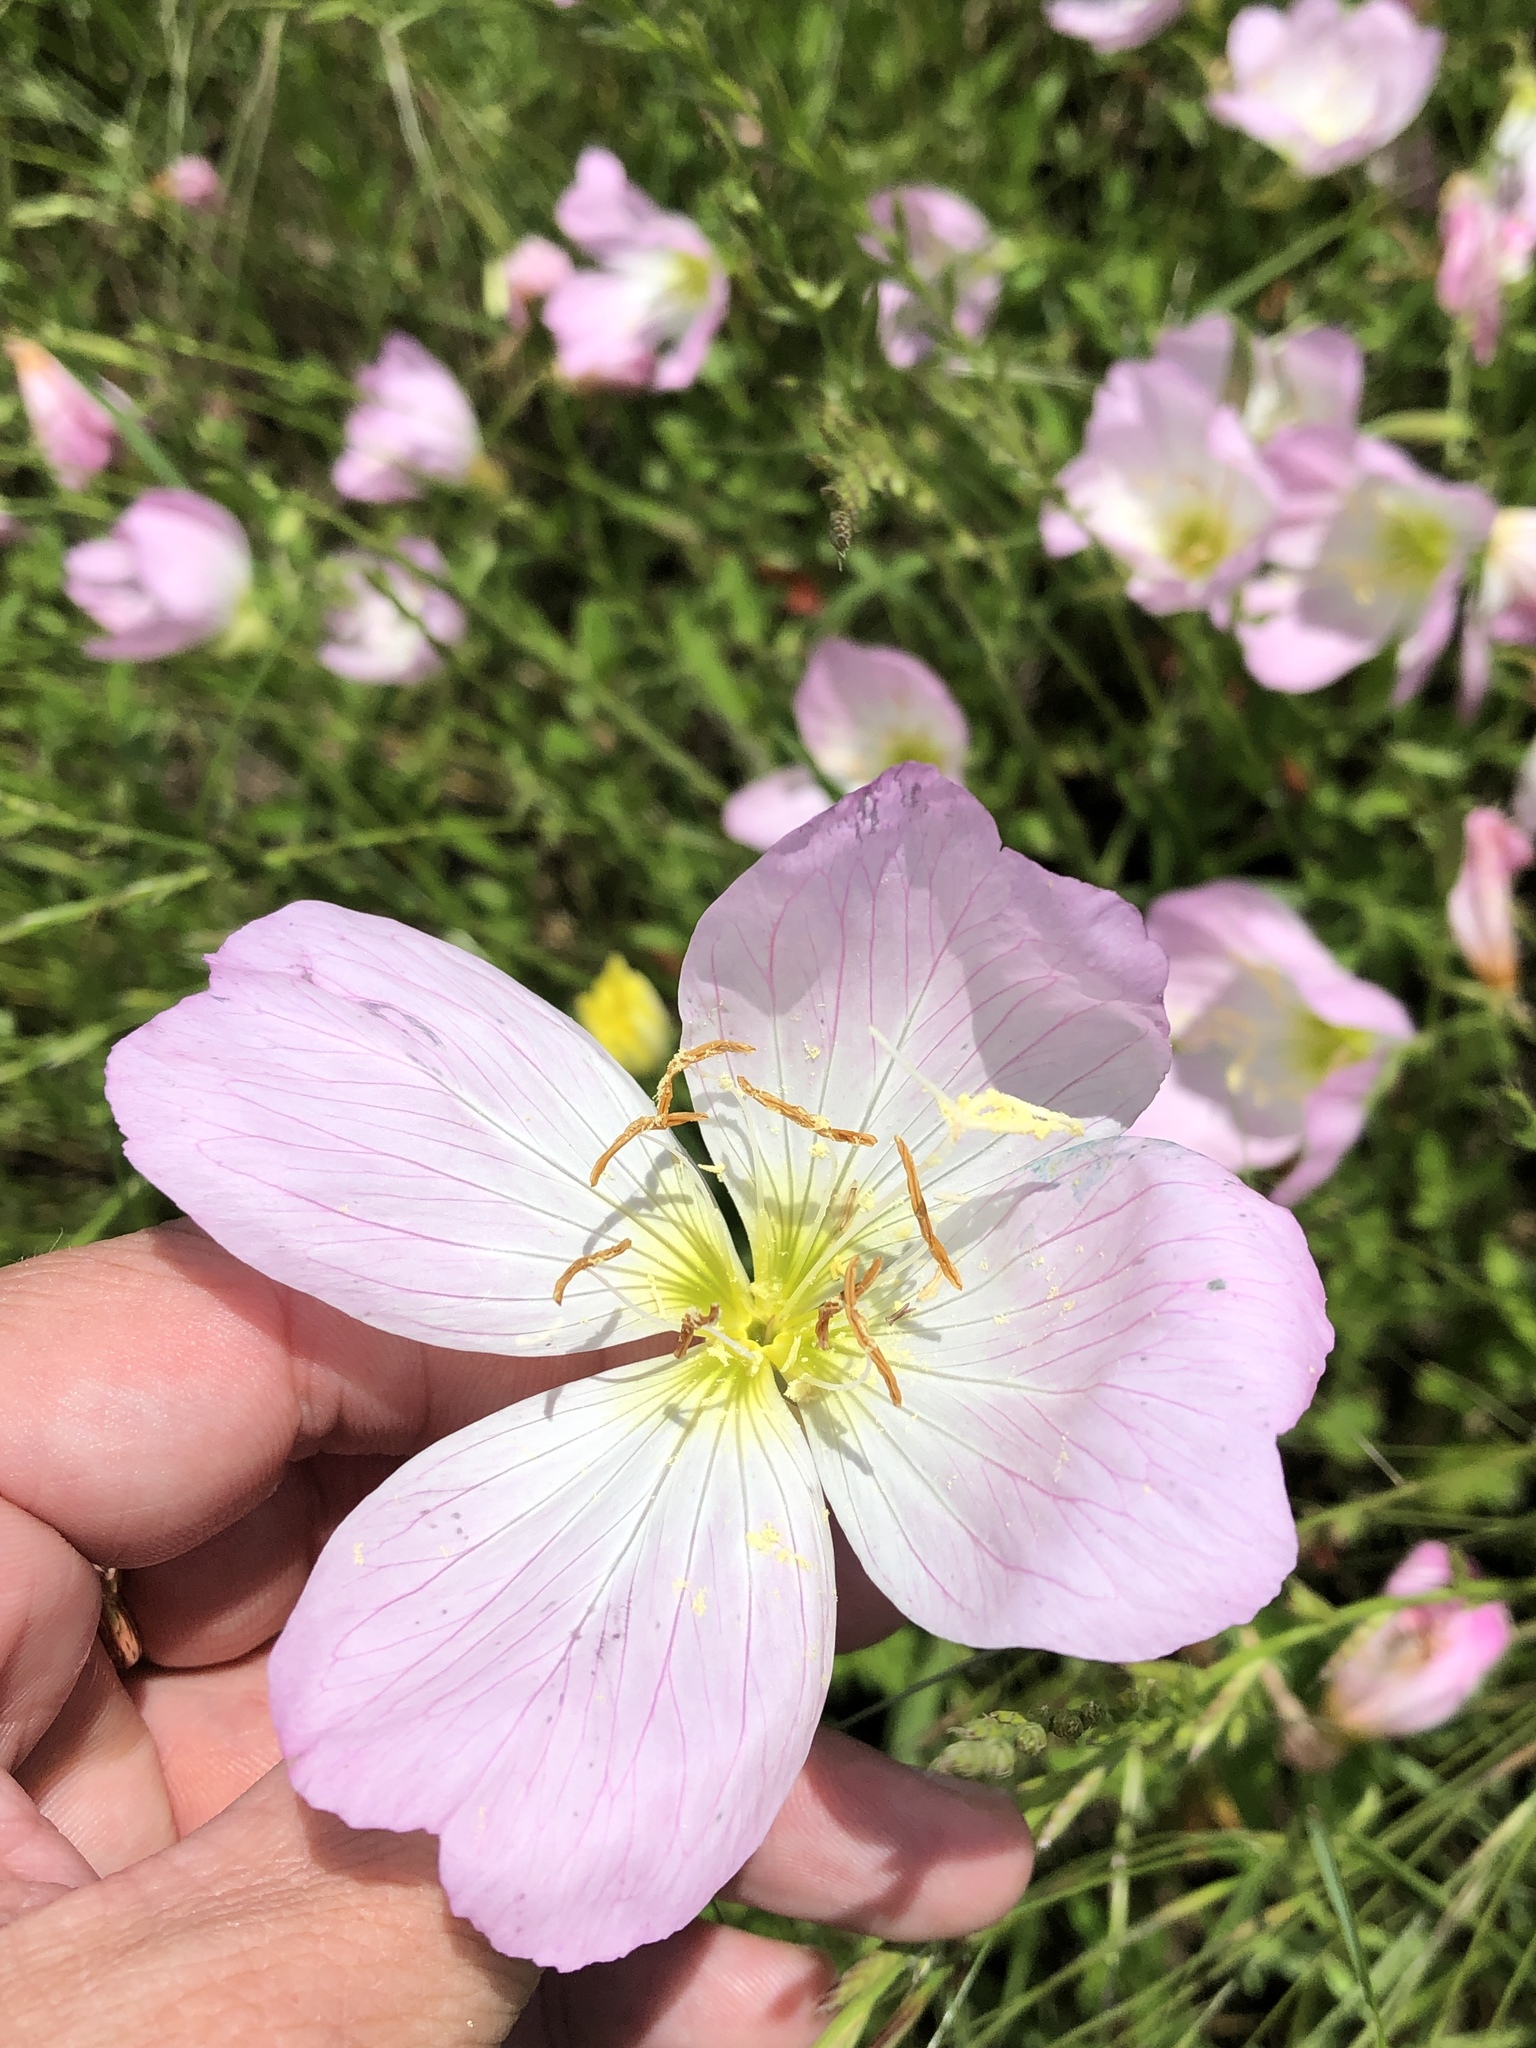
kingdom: Plantae
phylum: Tracheophyta
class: Magnoliopsida
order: Myrtales
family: Onagraceae
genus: Oenothera
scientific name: Oenothera speciosa
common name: White evening-primrose
